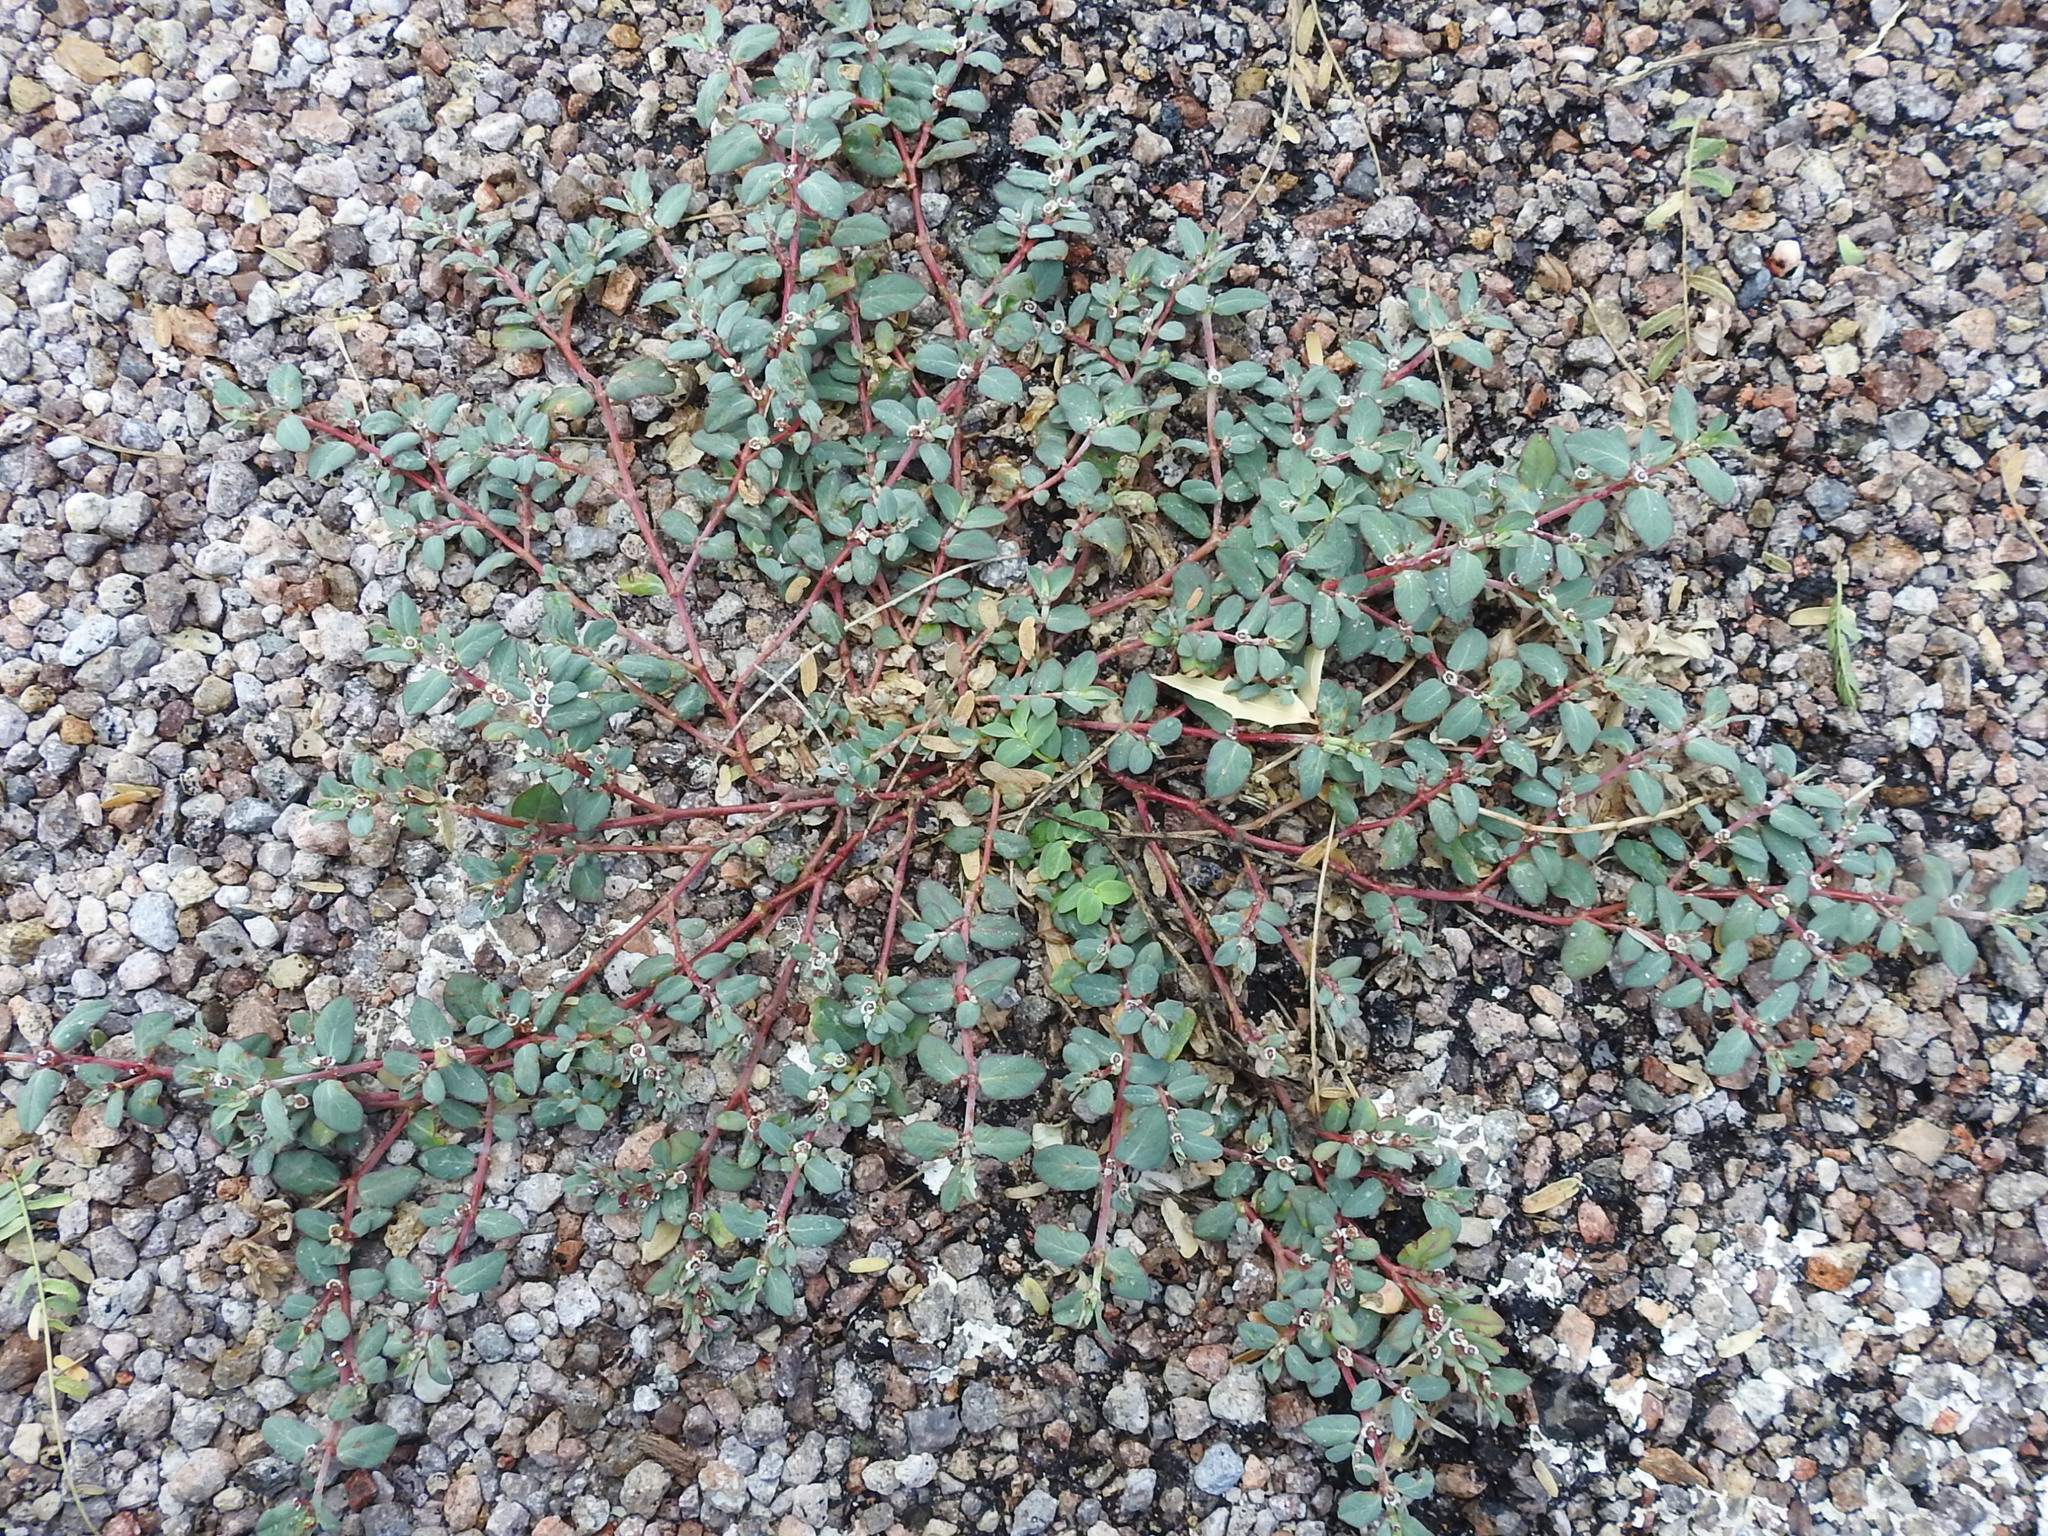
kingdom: Plantae
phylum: Tracheophyta
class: Magnoliopsida
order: Malpighiales
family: Euphorbiaceae
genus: Euphorbia
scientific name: Euphorbia pediculifera
